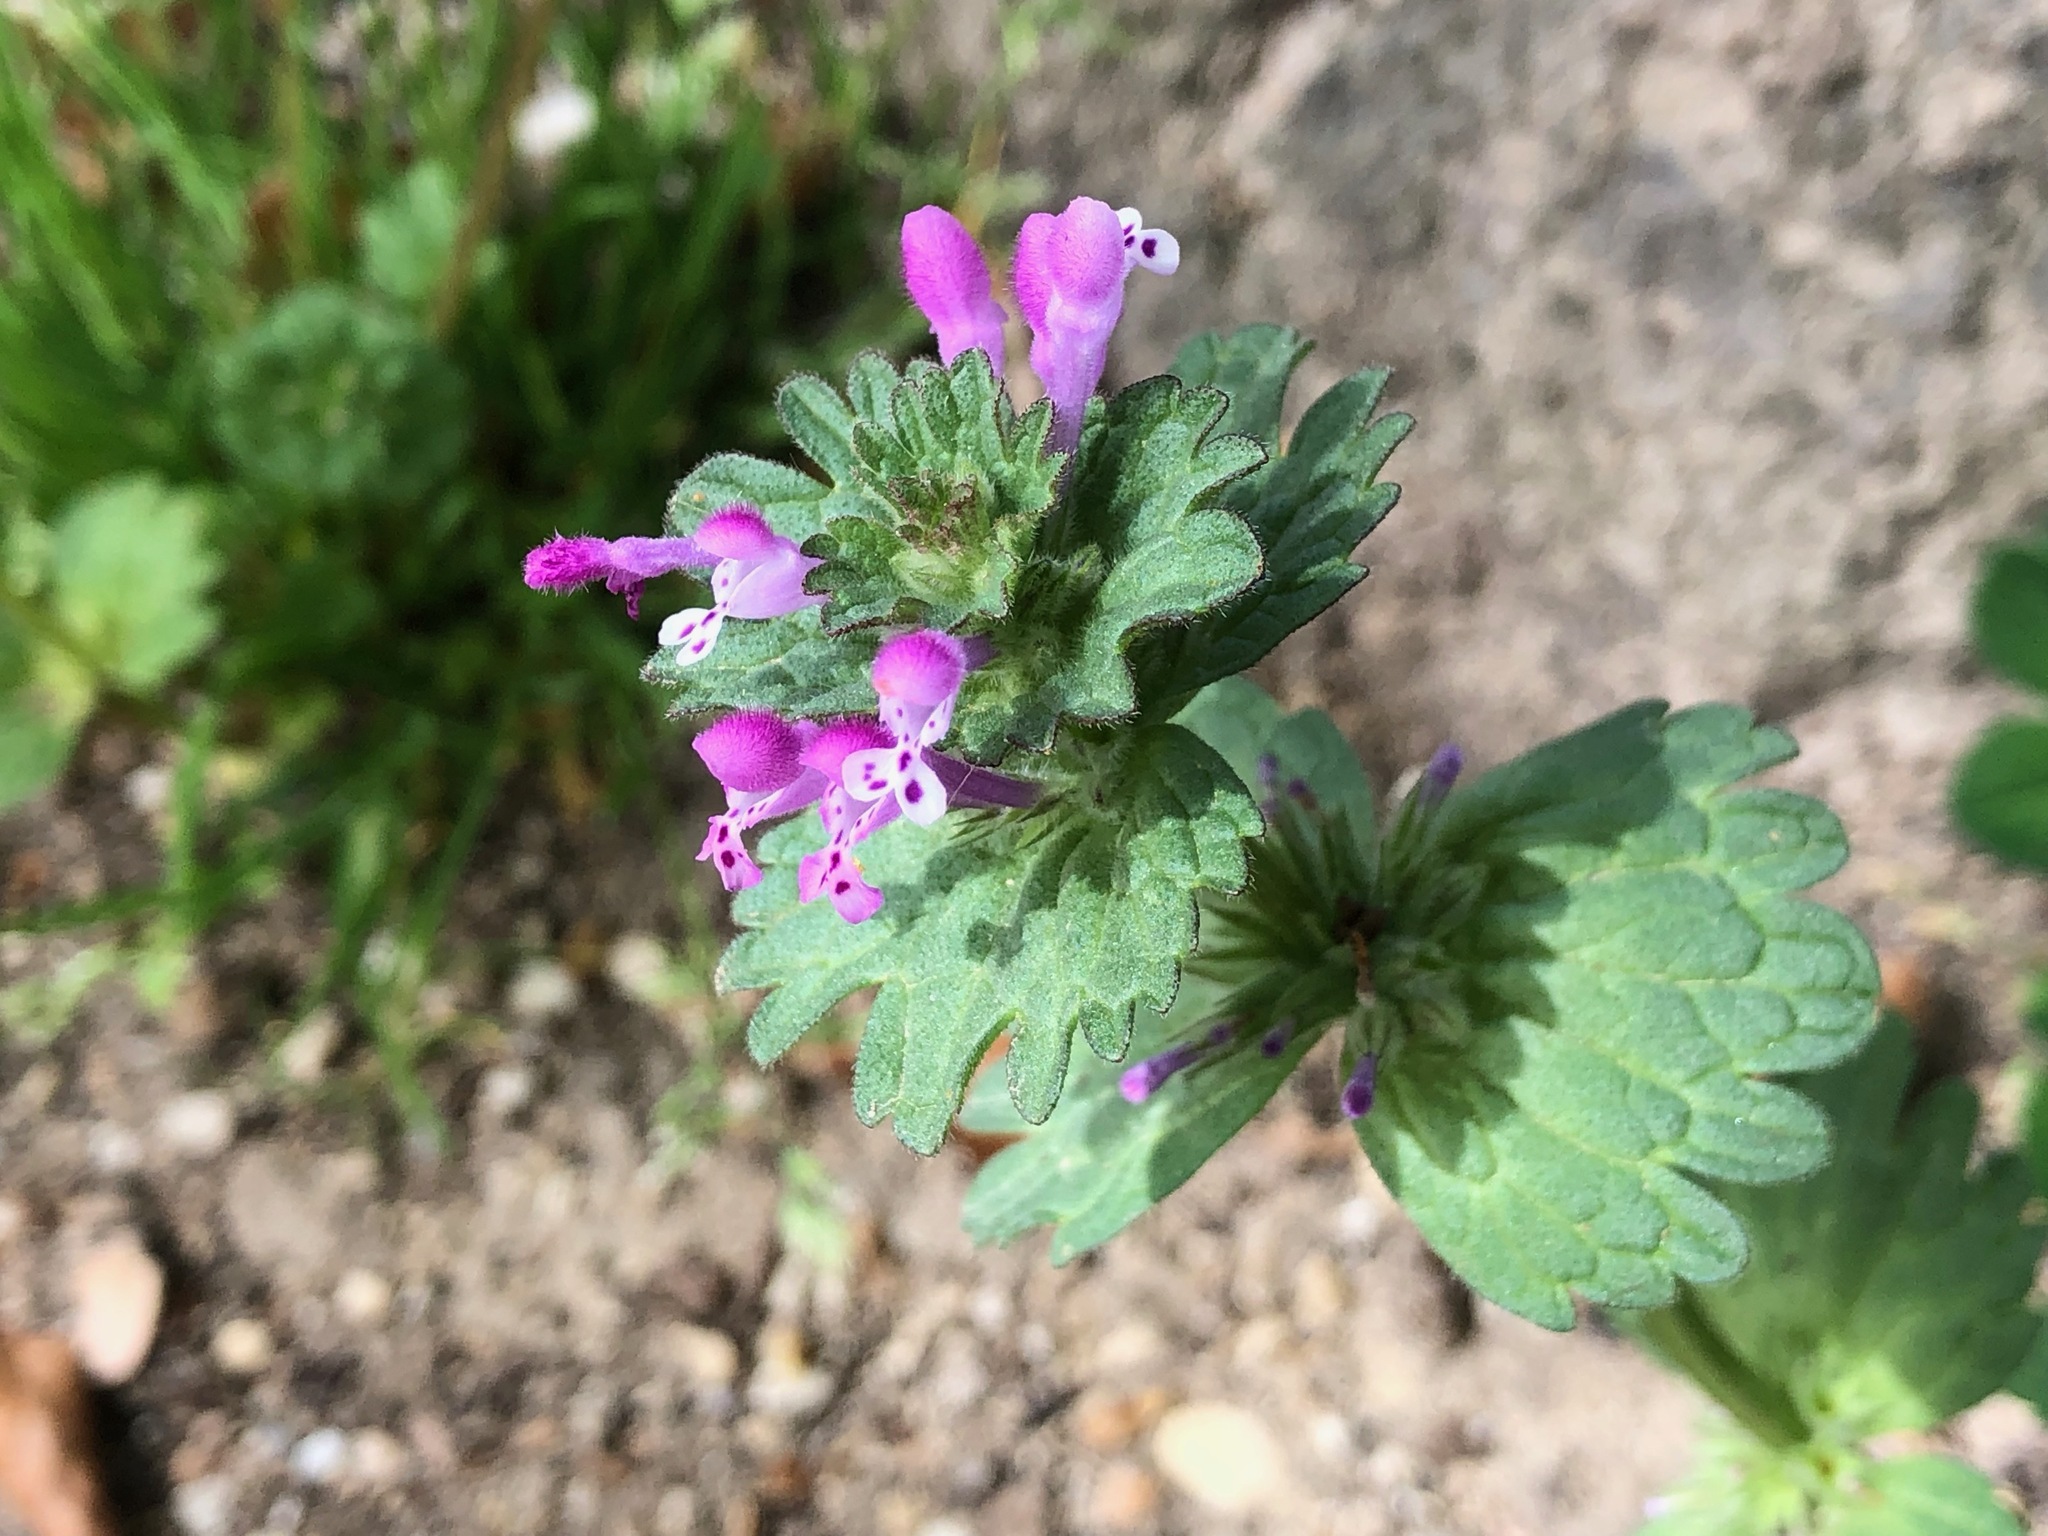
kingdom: Plantae
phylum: Tracheophyta
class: Magnoliopsida
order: Lamiales
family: Lamiaceae
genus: Lamium
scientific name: Lamium amplexicaule
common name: Henbit dead-nettle
